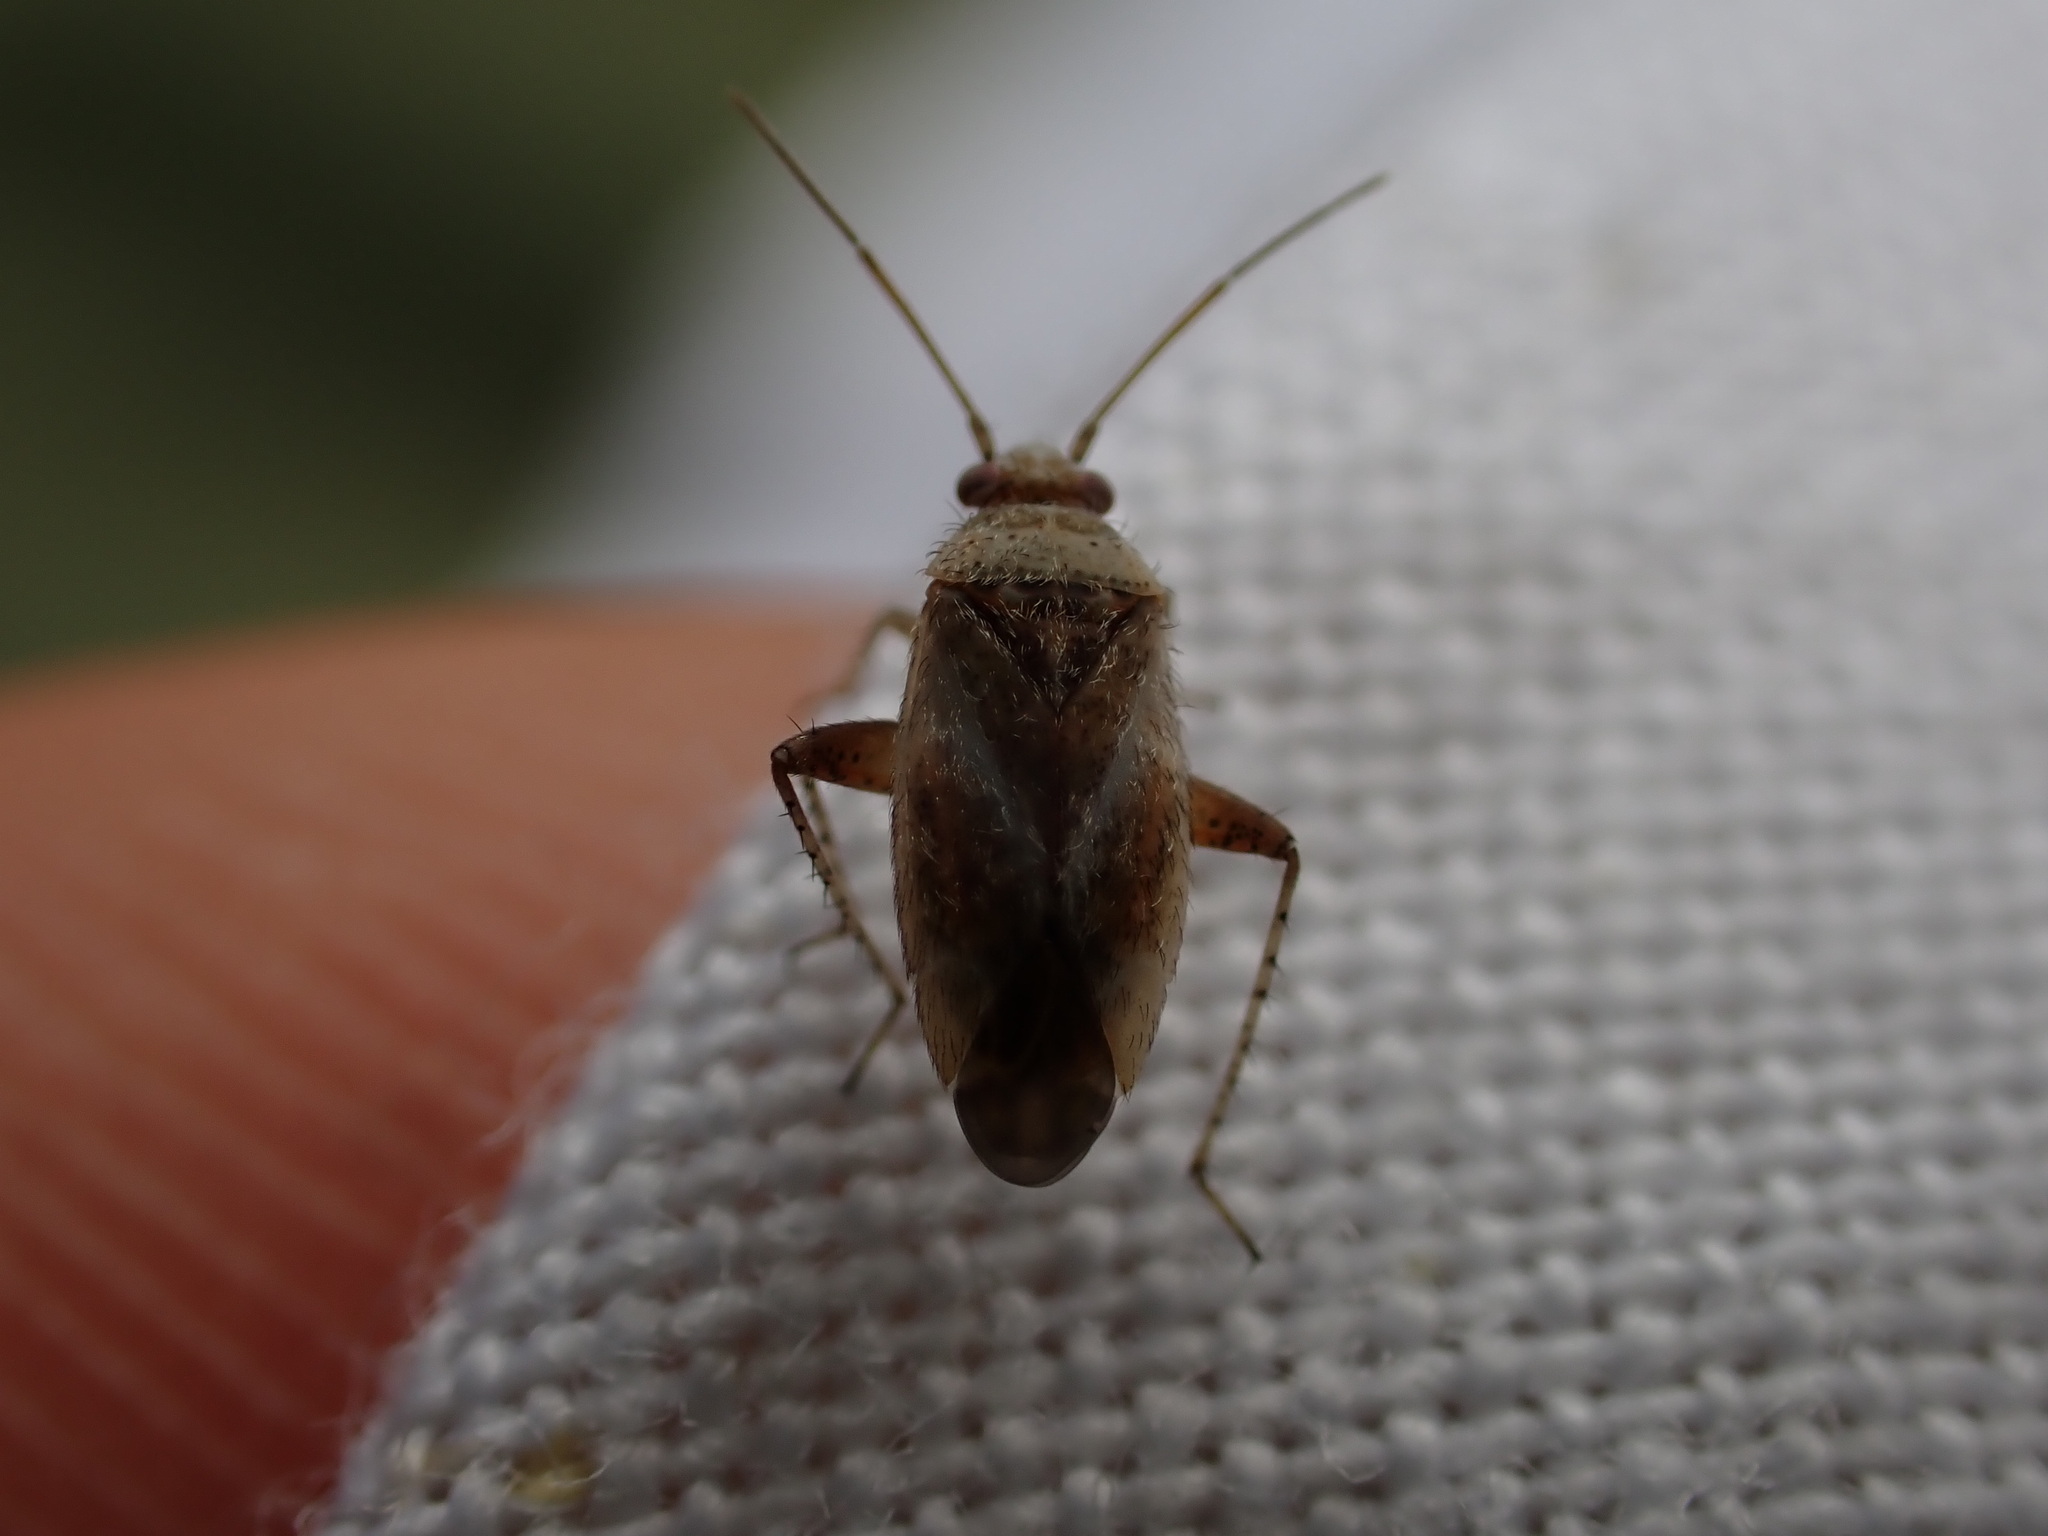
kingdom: Animalia
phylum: Arthropoda
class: Insecta
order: Hemiptera
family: Miridae
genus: Compsidolon
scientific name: Compsidolon crotchi
